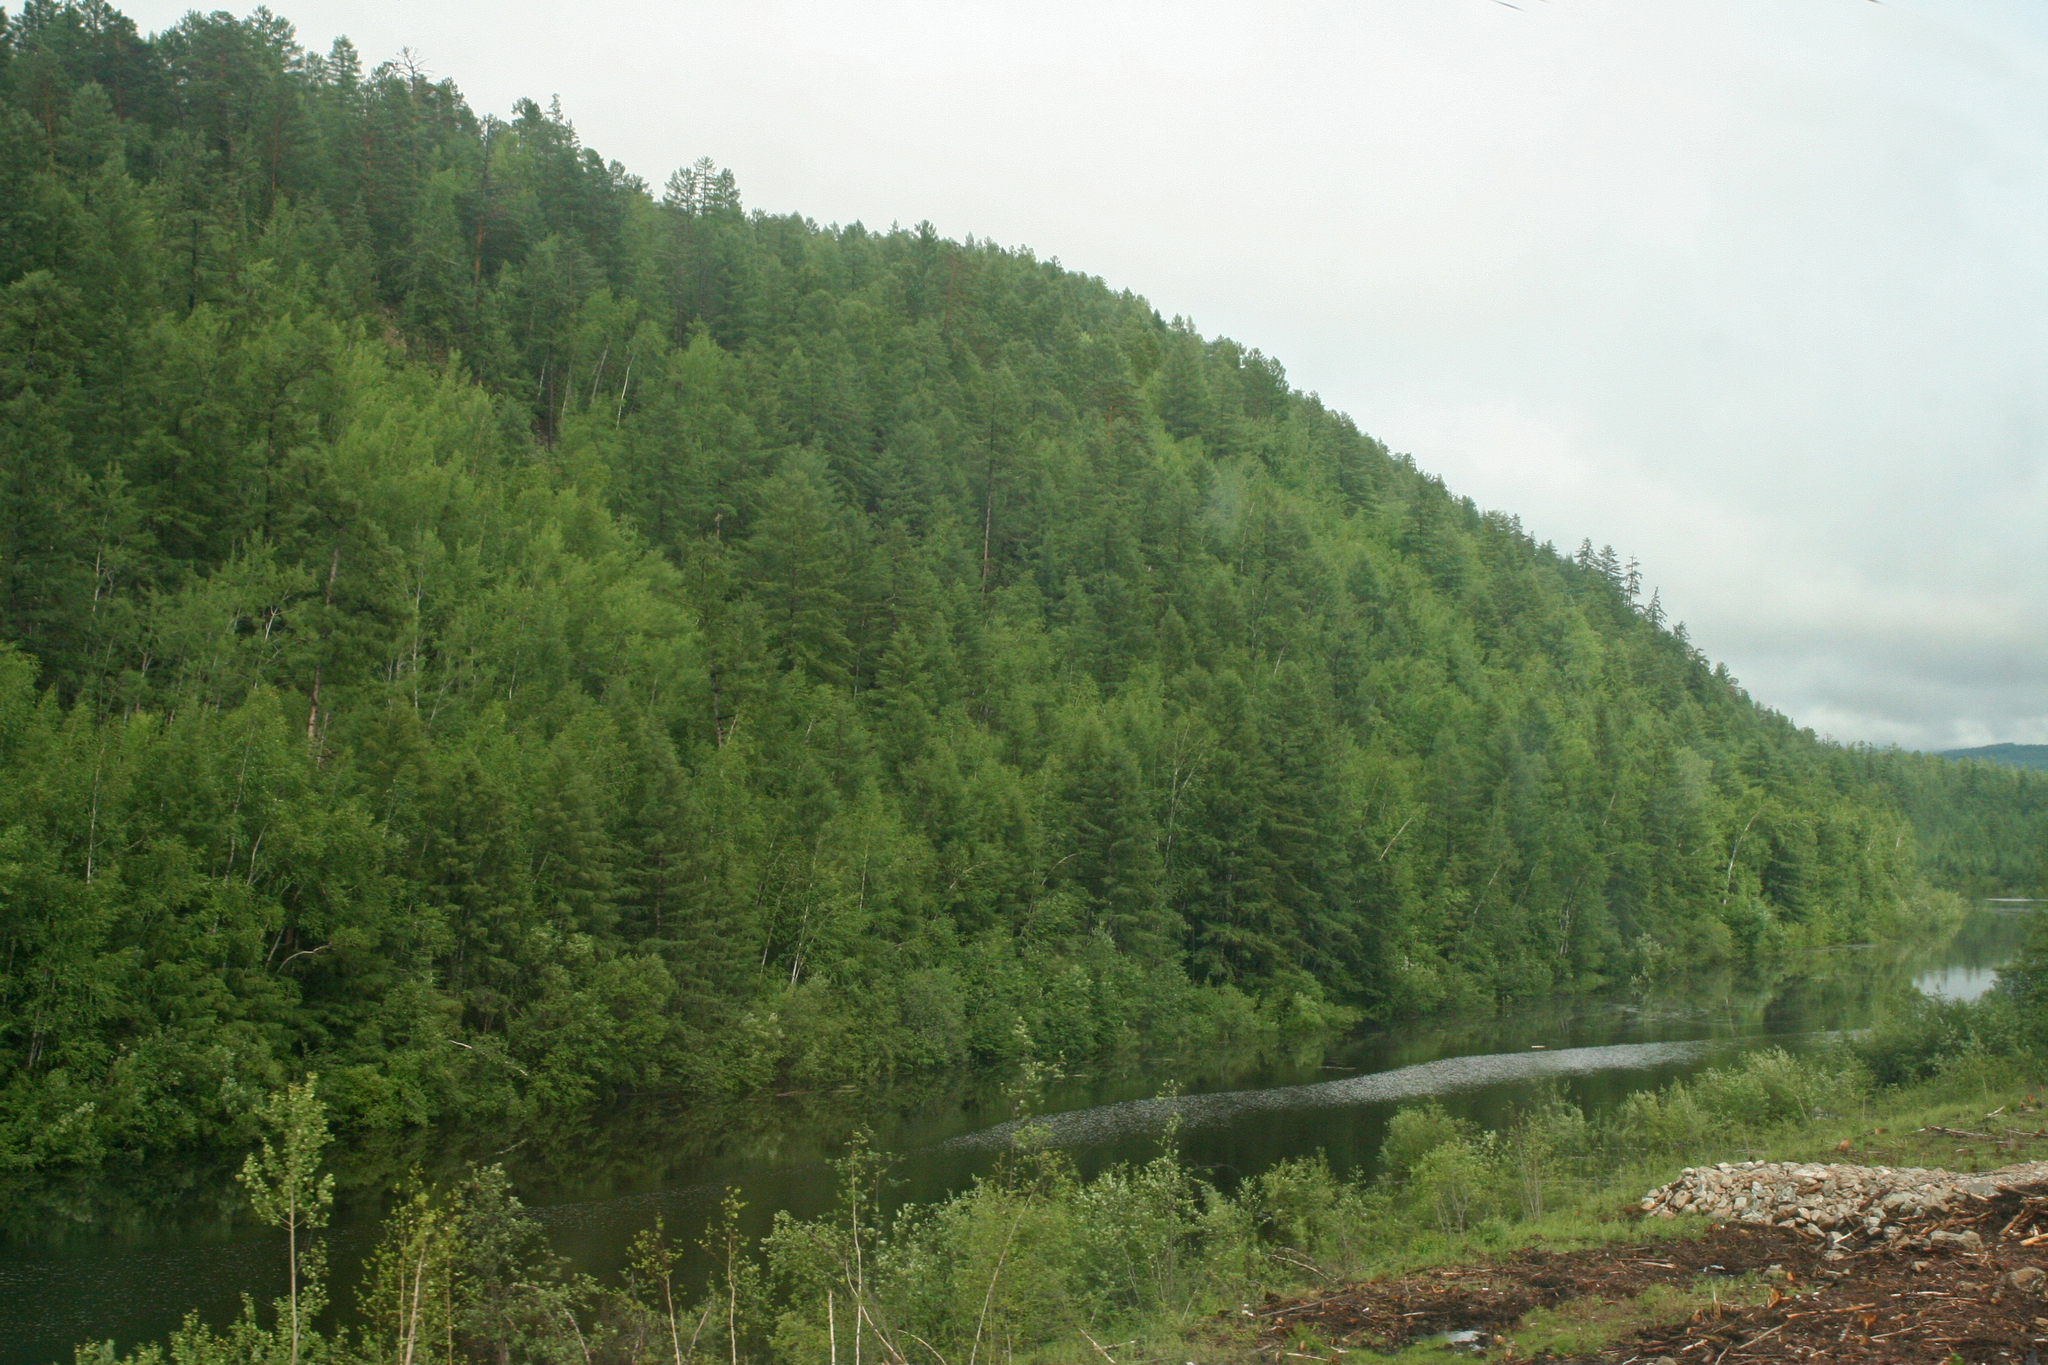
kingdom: Plantae
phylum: Tracheophyta
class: Pinopsida
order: Pinales
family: Pinaceae
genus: Larix
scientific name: Larix gmelinii
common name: Dahurian larch
